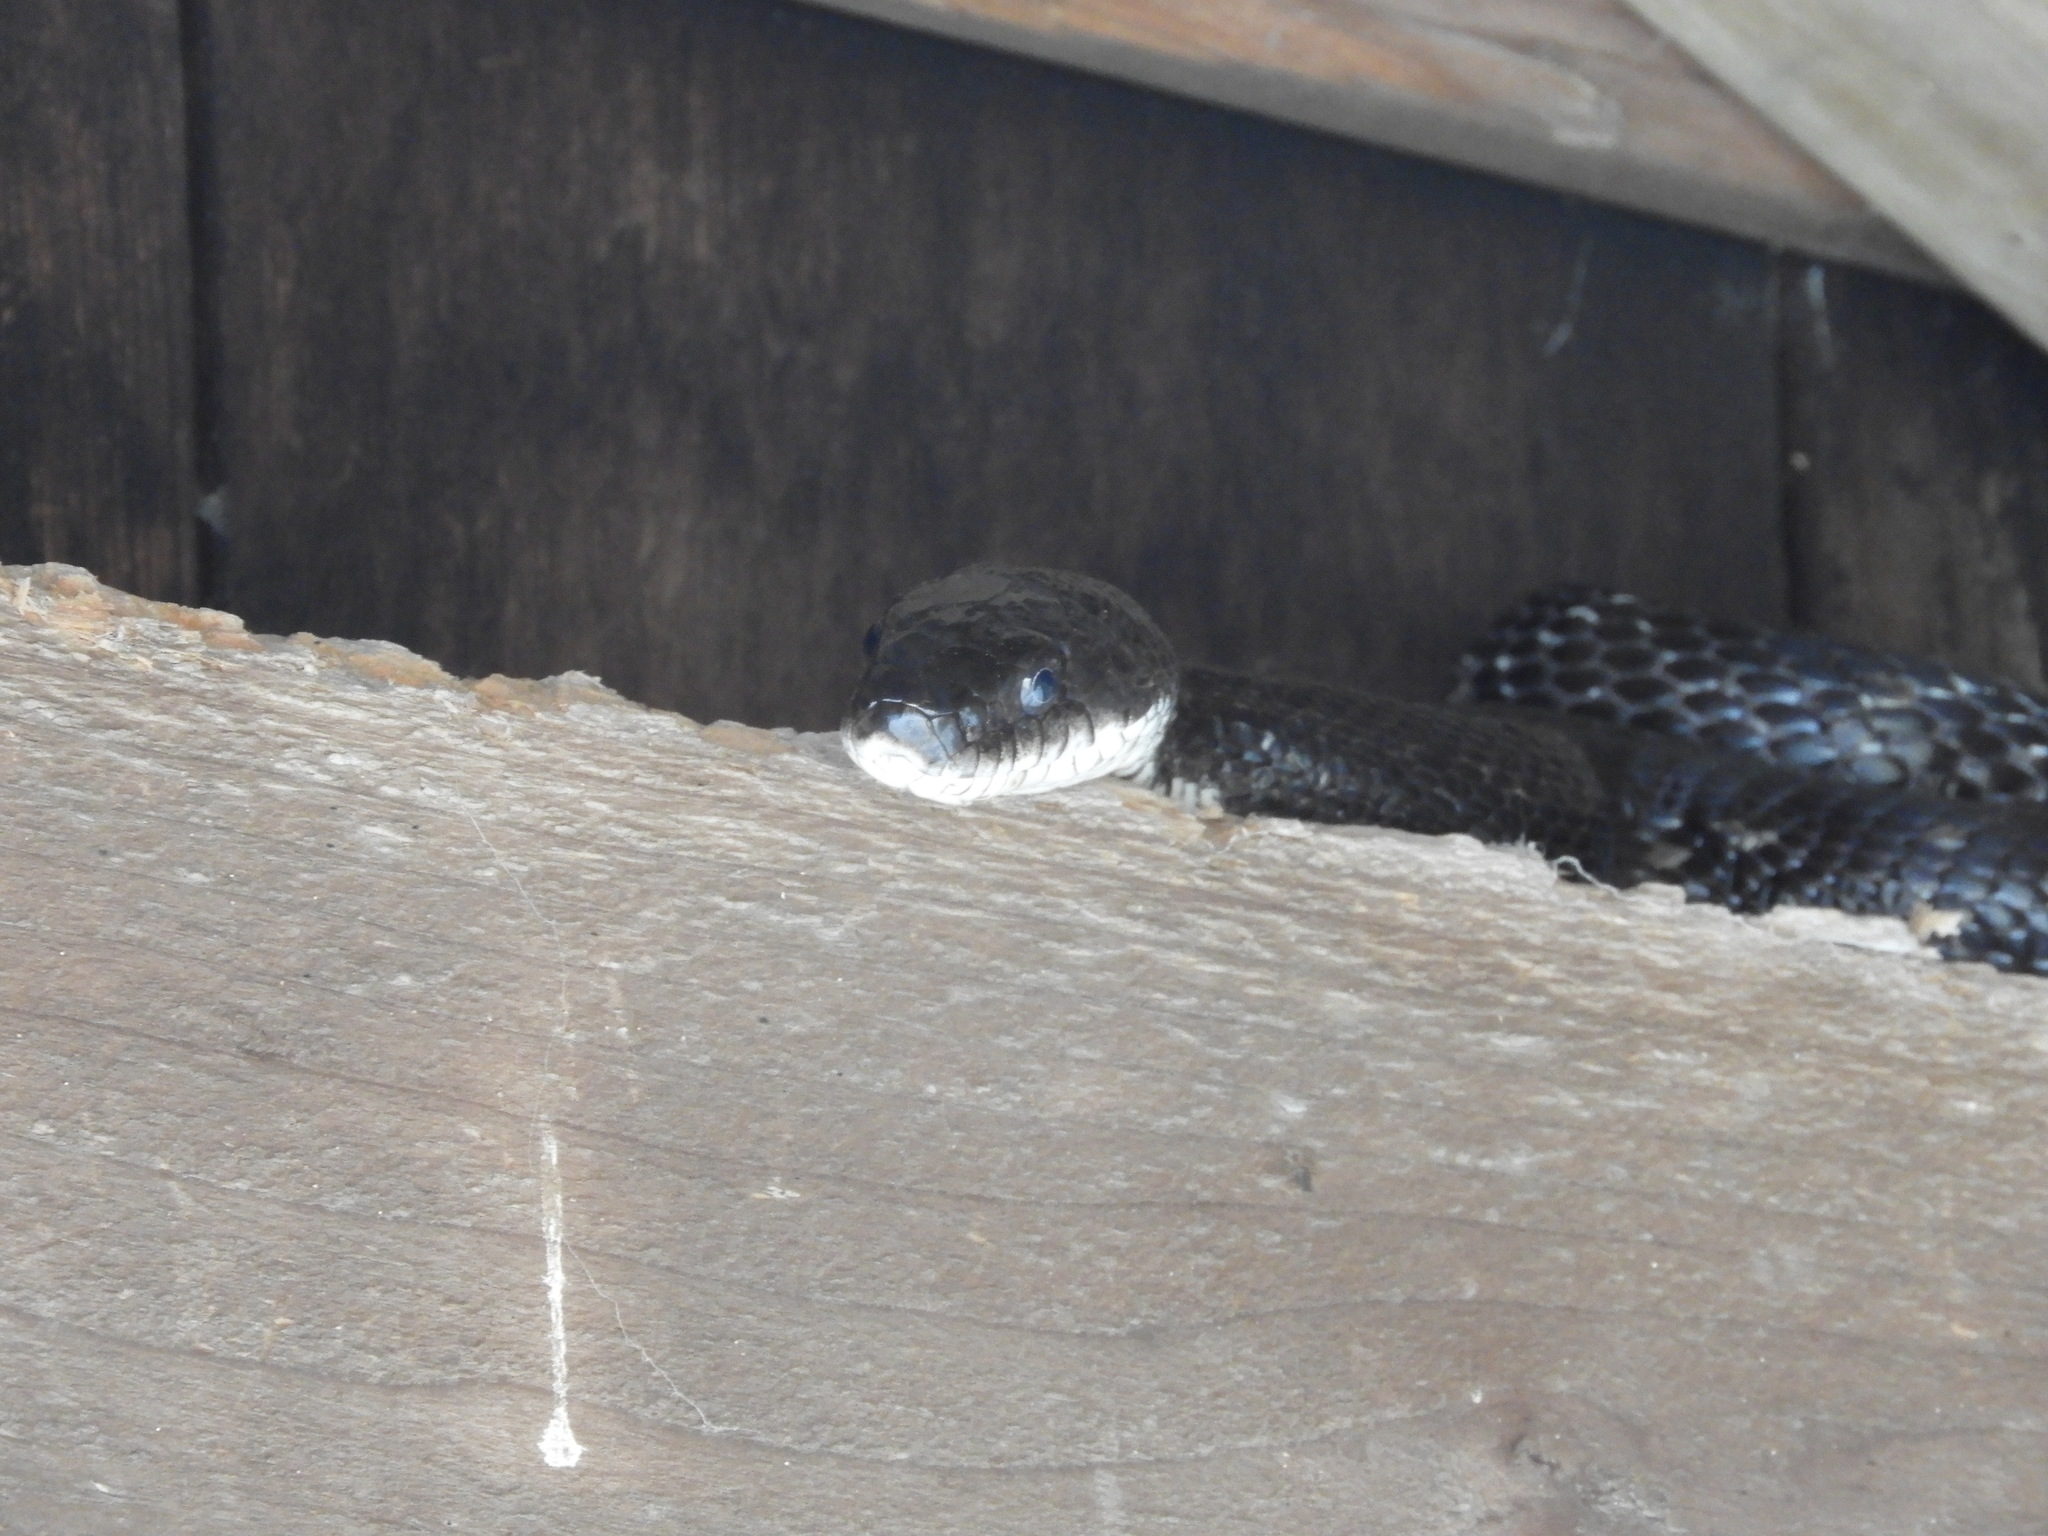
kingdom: Animalia
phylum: Chordata
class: Squamata
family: Colubridae
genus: Pantherophis
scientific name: Pantherophis alleghaniensis
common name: Eastern rat snake
